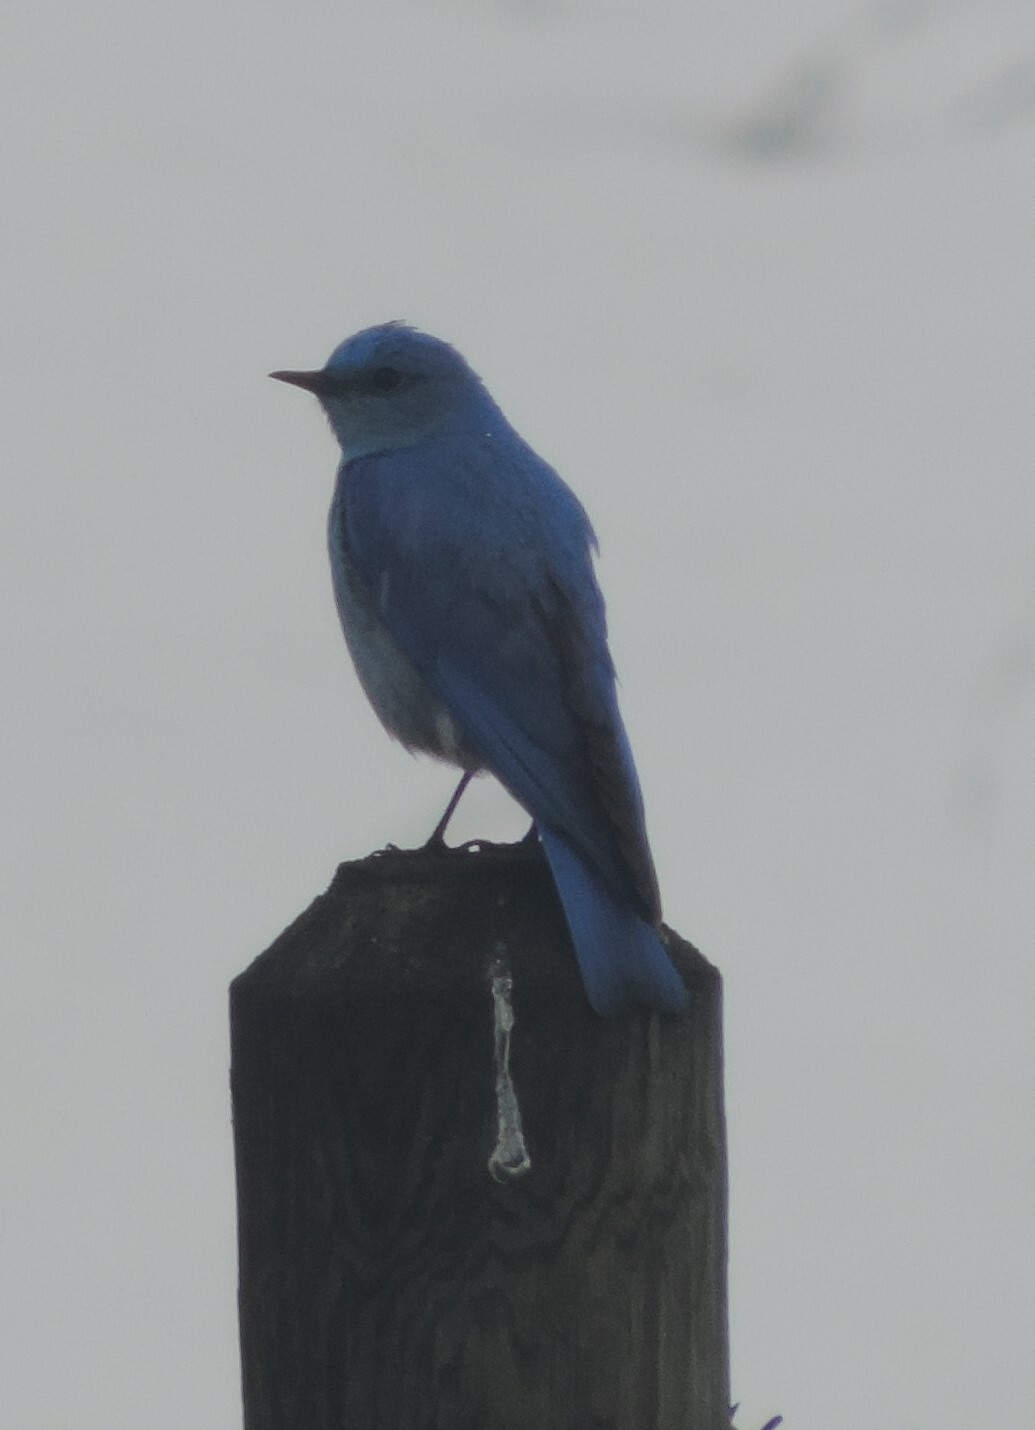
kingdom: Animalia
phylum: Chordata
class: Aves
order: Passeriformes
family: Turdidae
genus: Sialia
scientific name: Sialia currucoides
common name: Mountain bluebird
